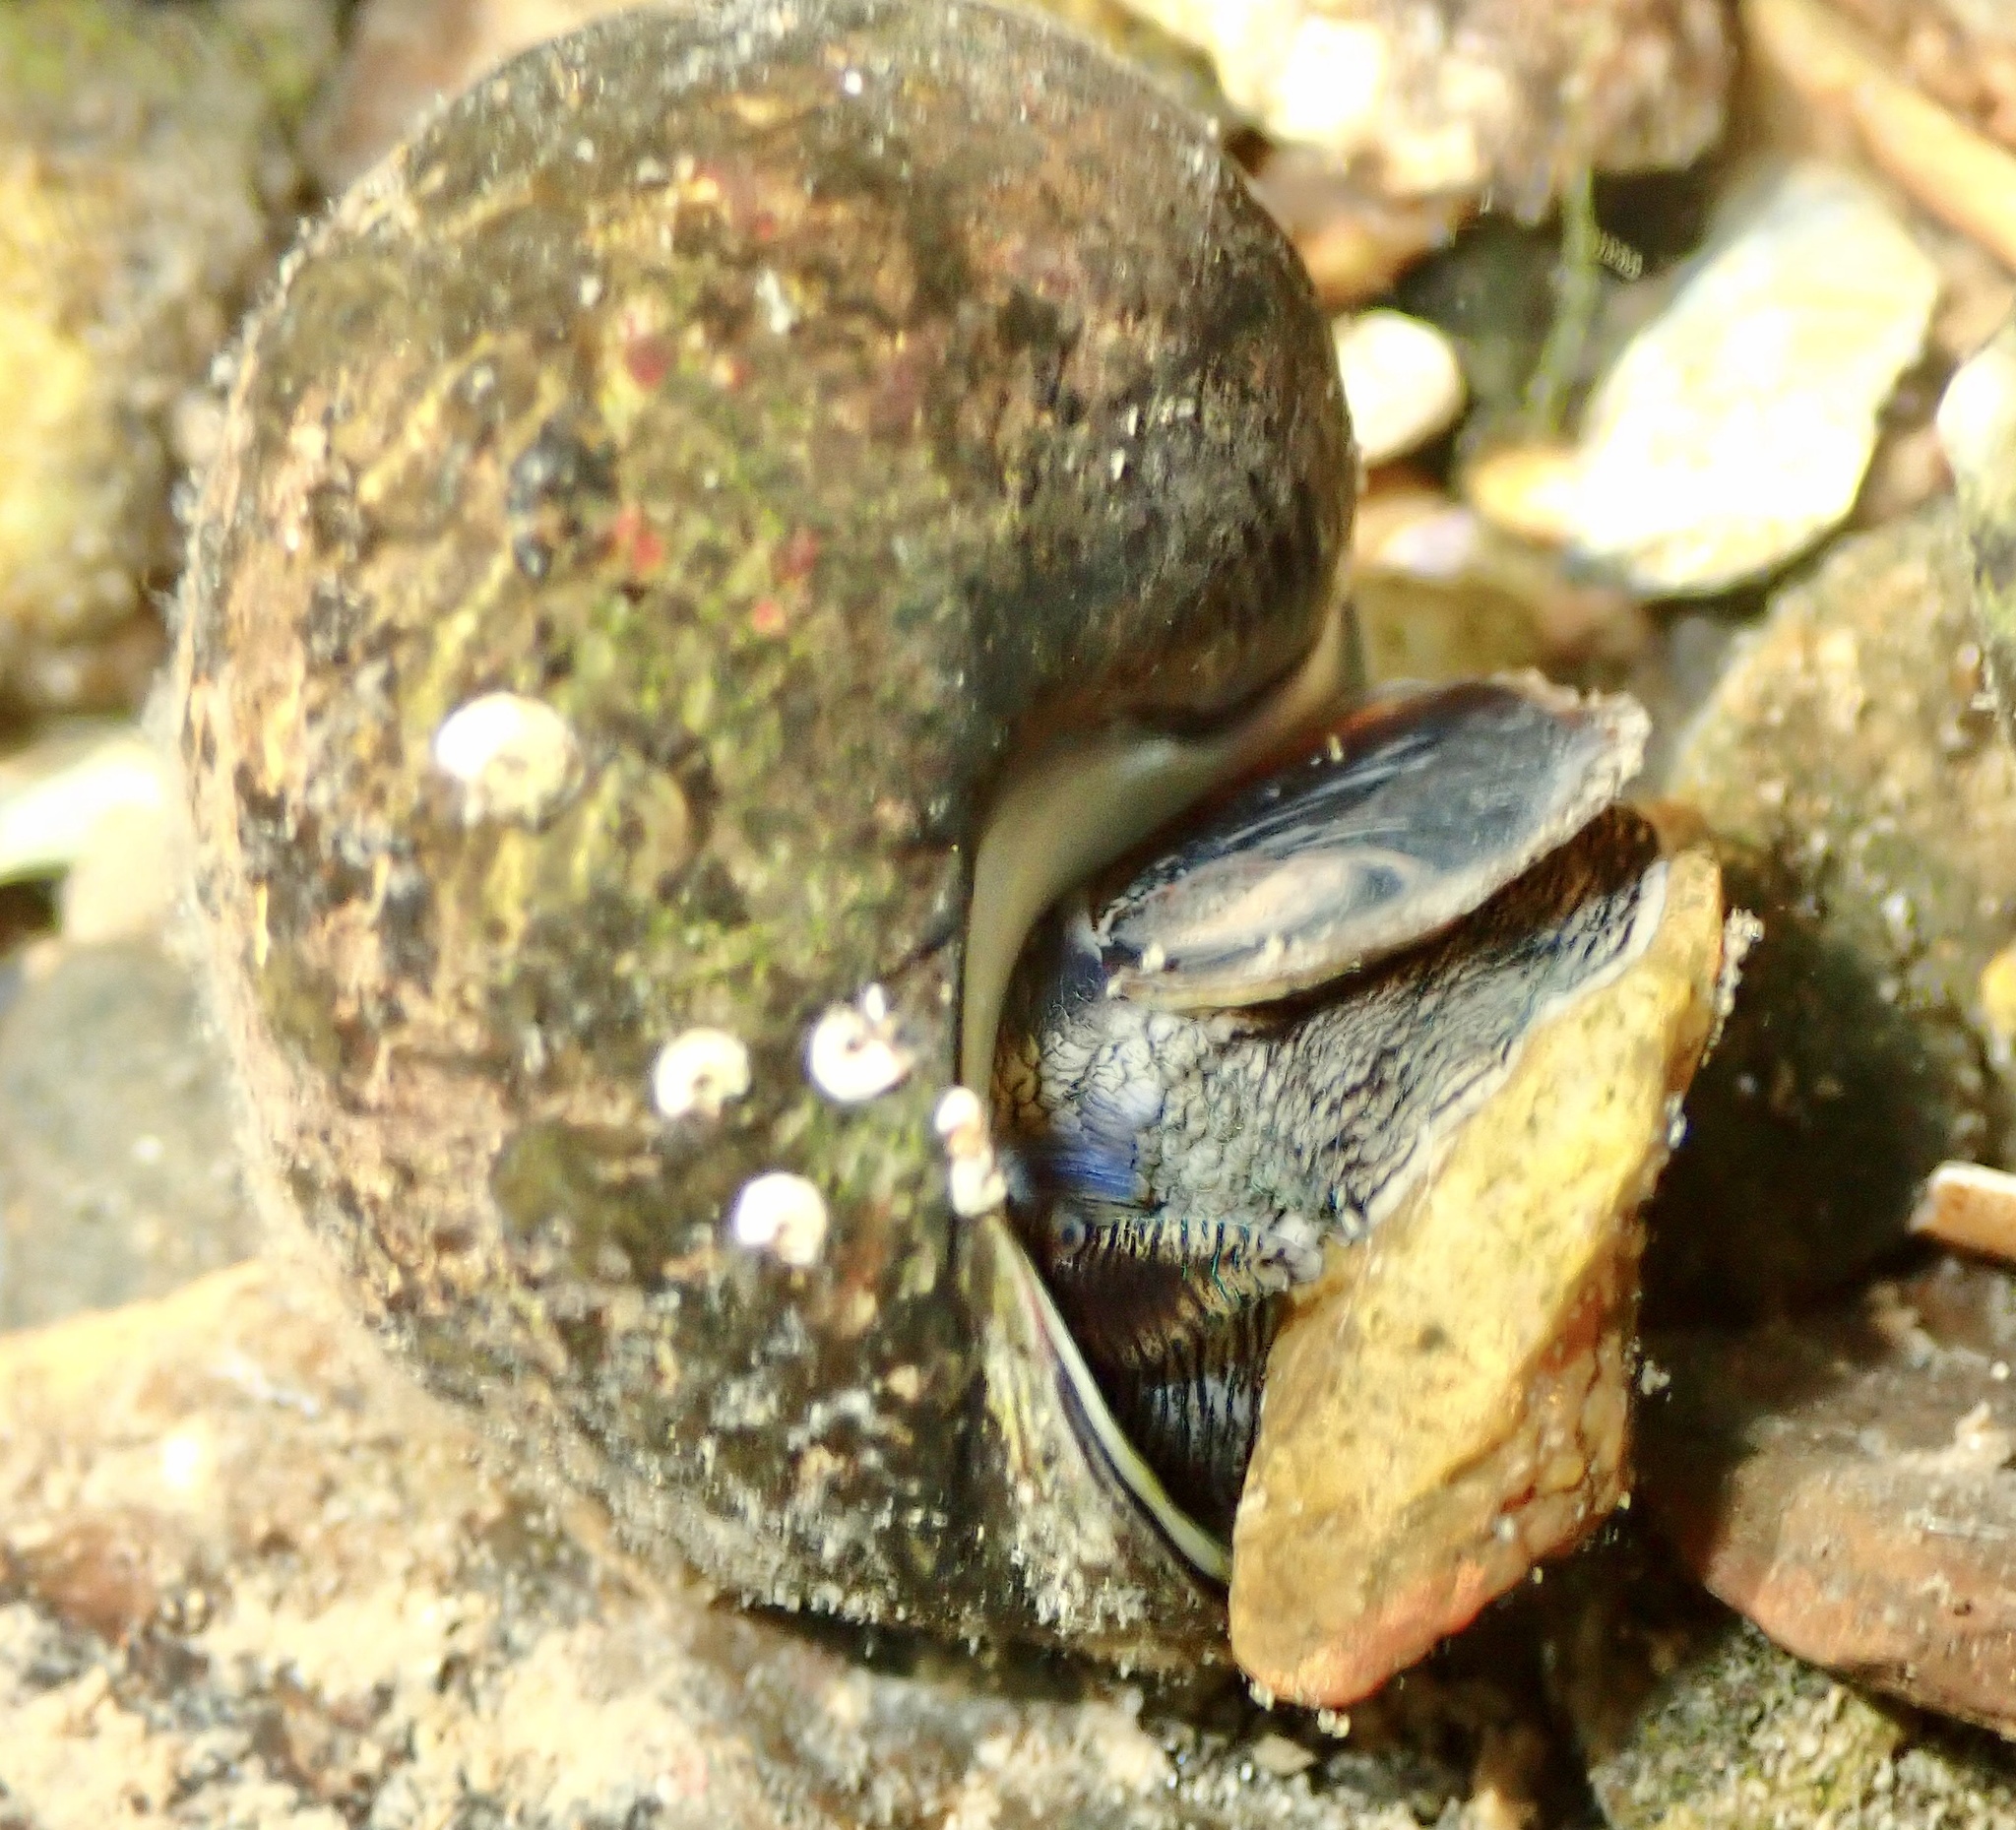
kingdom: Animalia
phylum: Mollusca
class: Gastropoda
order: Littorinimorpha
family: Littorinidae
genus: Littorina
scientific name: Littorina littorea
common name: Common periwinkle
